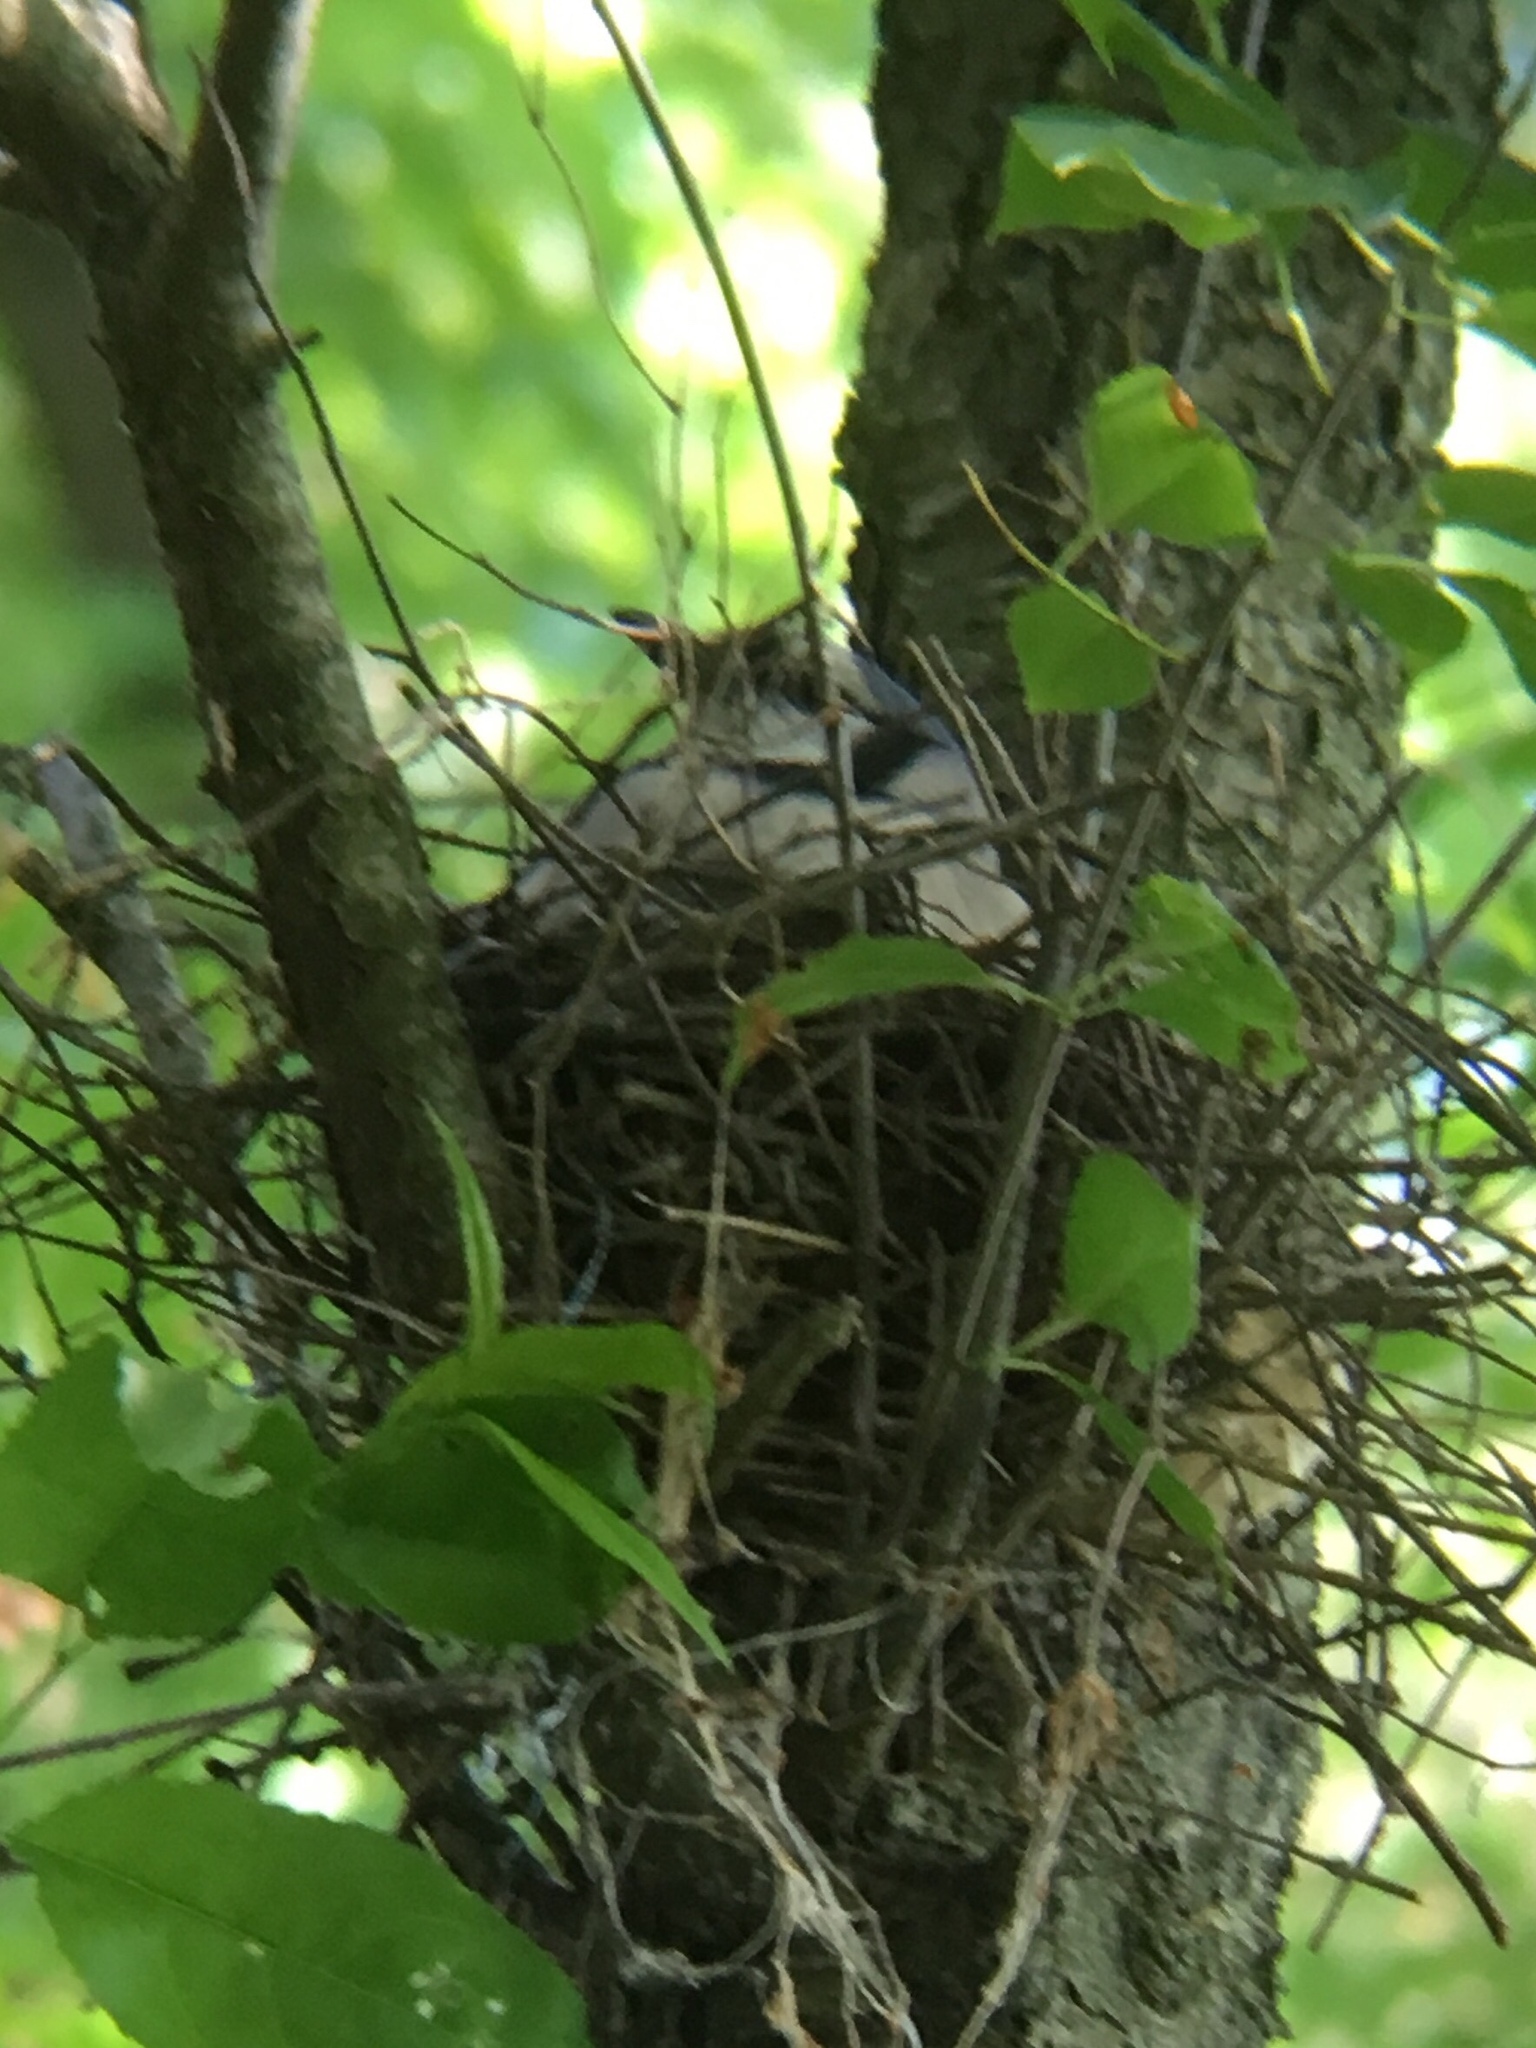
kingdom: Animalia
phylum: Chordata
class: Aves
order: Passeriformes
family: Corvidae
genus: Cyanocitta
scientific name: Cyanocitta cristata
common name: Blue jay
